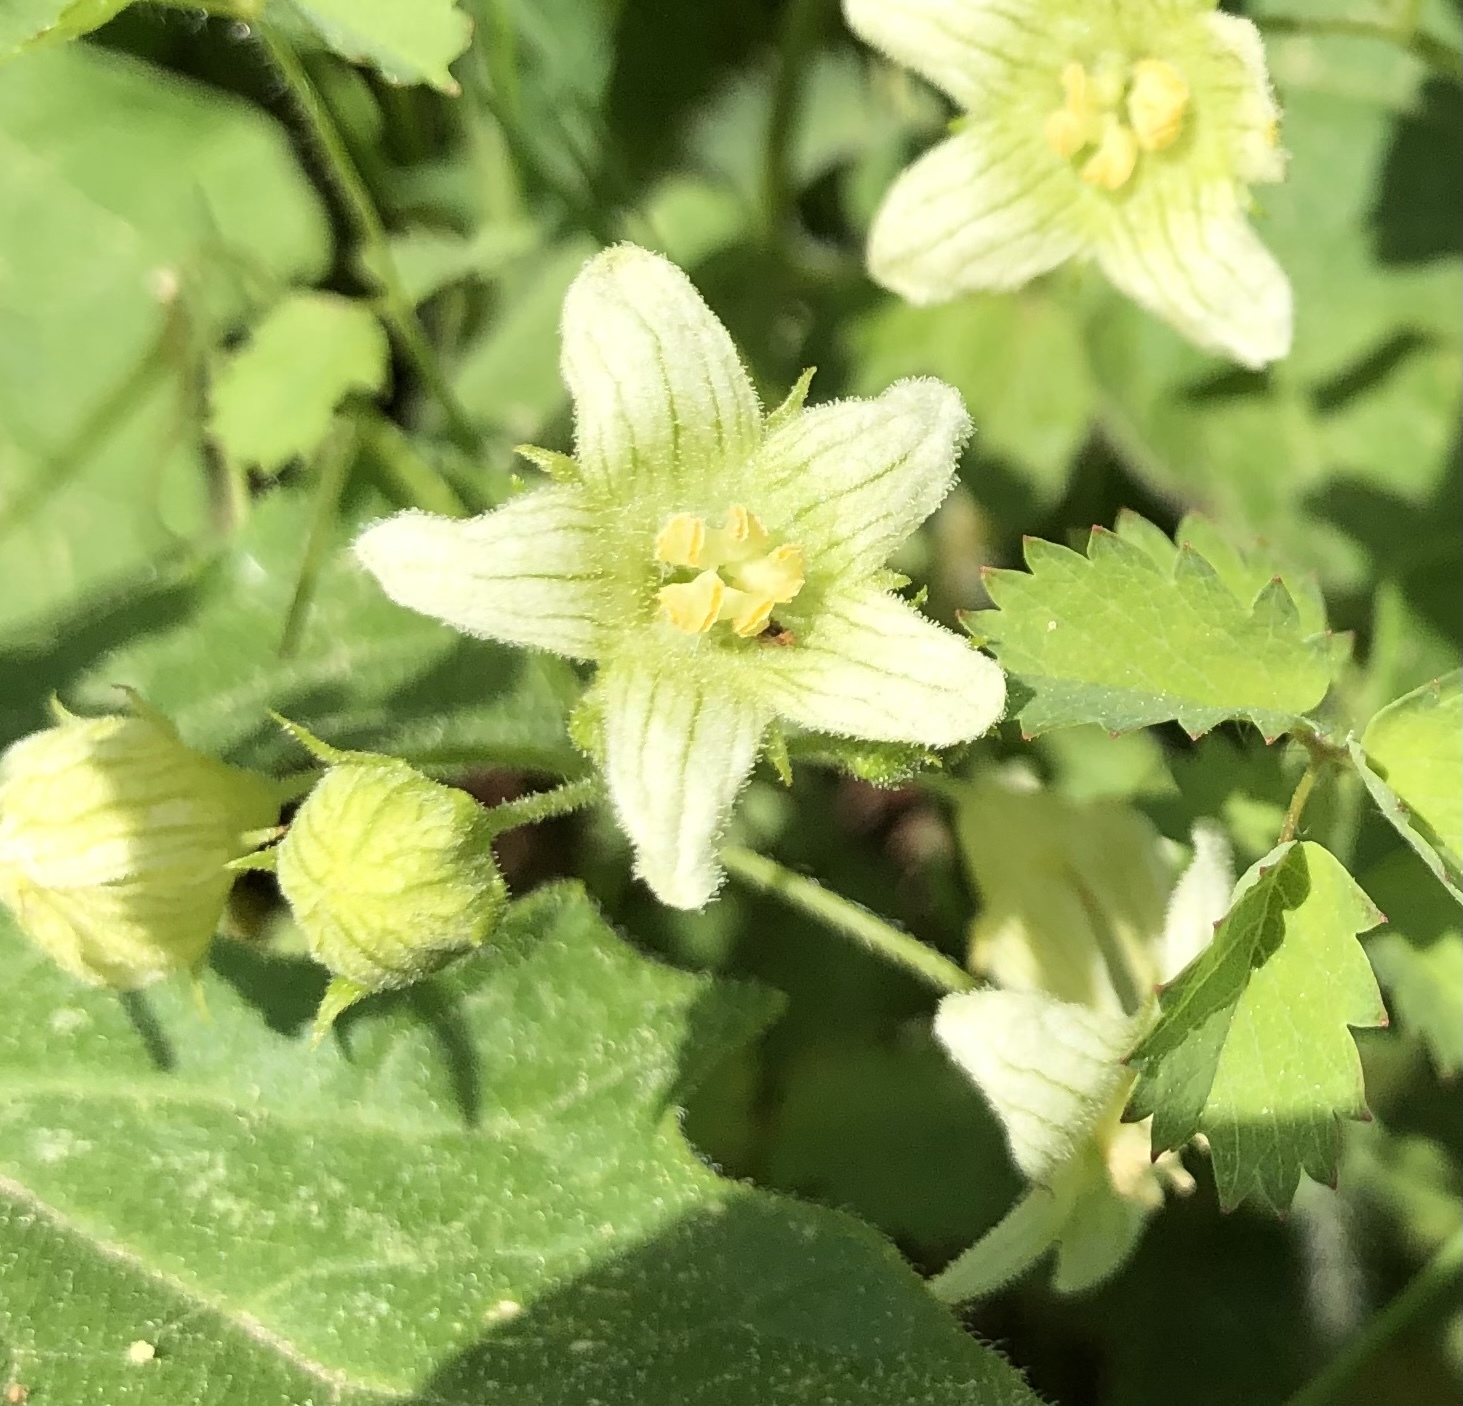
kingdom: Plantae
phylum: Tracheophyta
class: Magnoliopsida
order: Cucurbitales
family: Cucurbitaceae
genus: Bryonia
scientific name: Bryonia dioica
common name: White bryony
